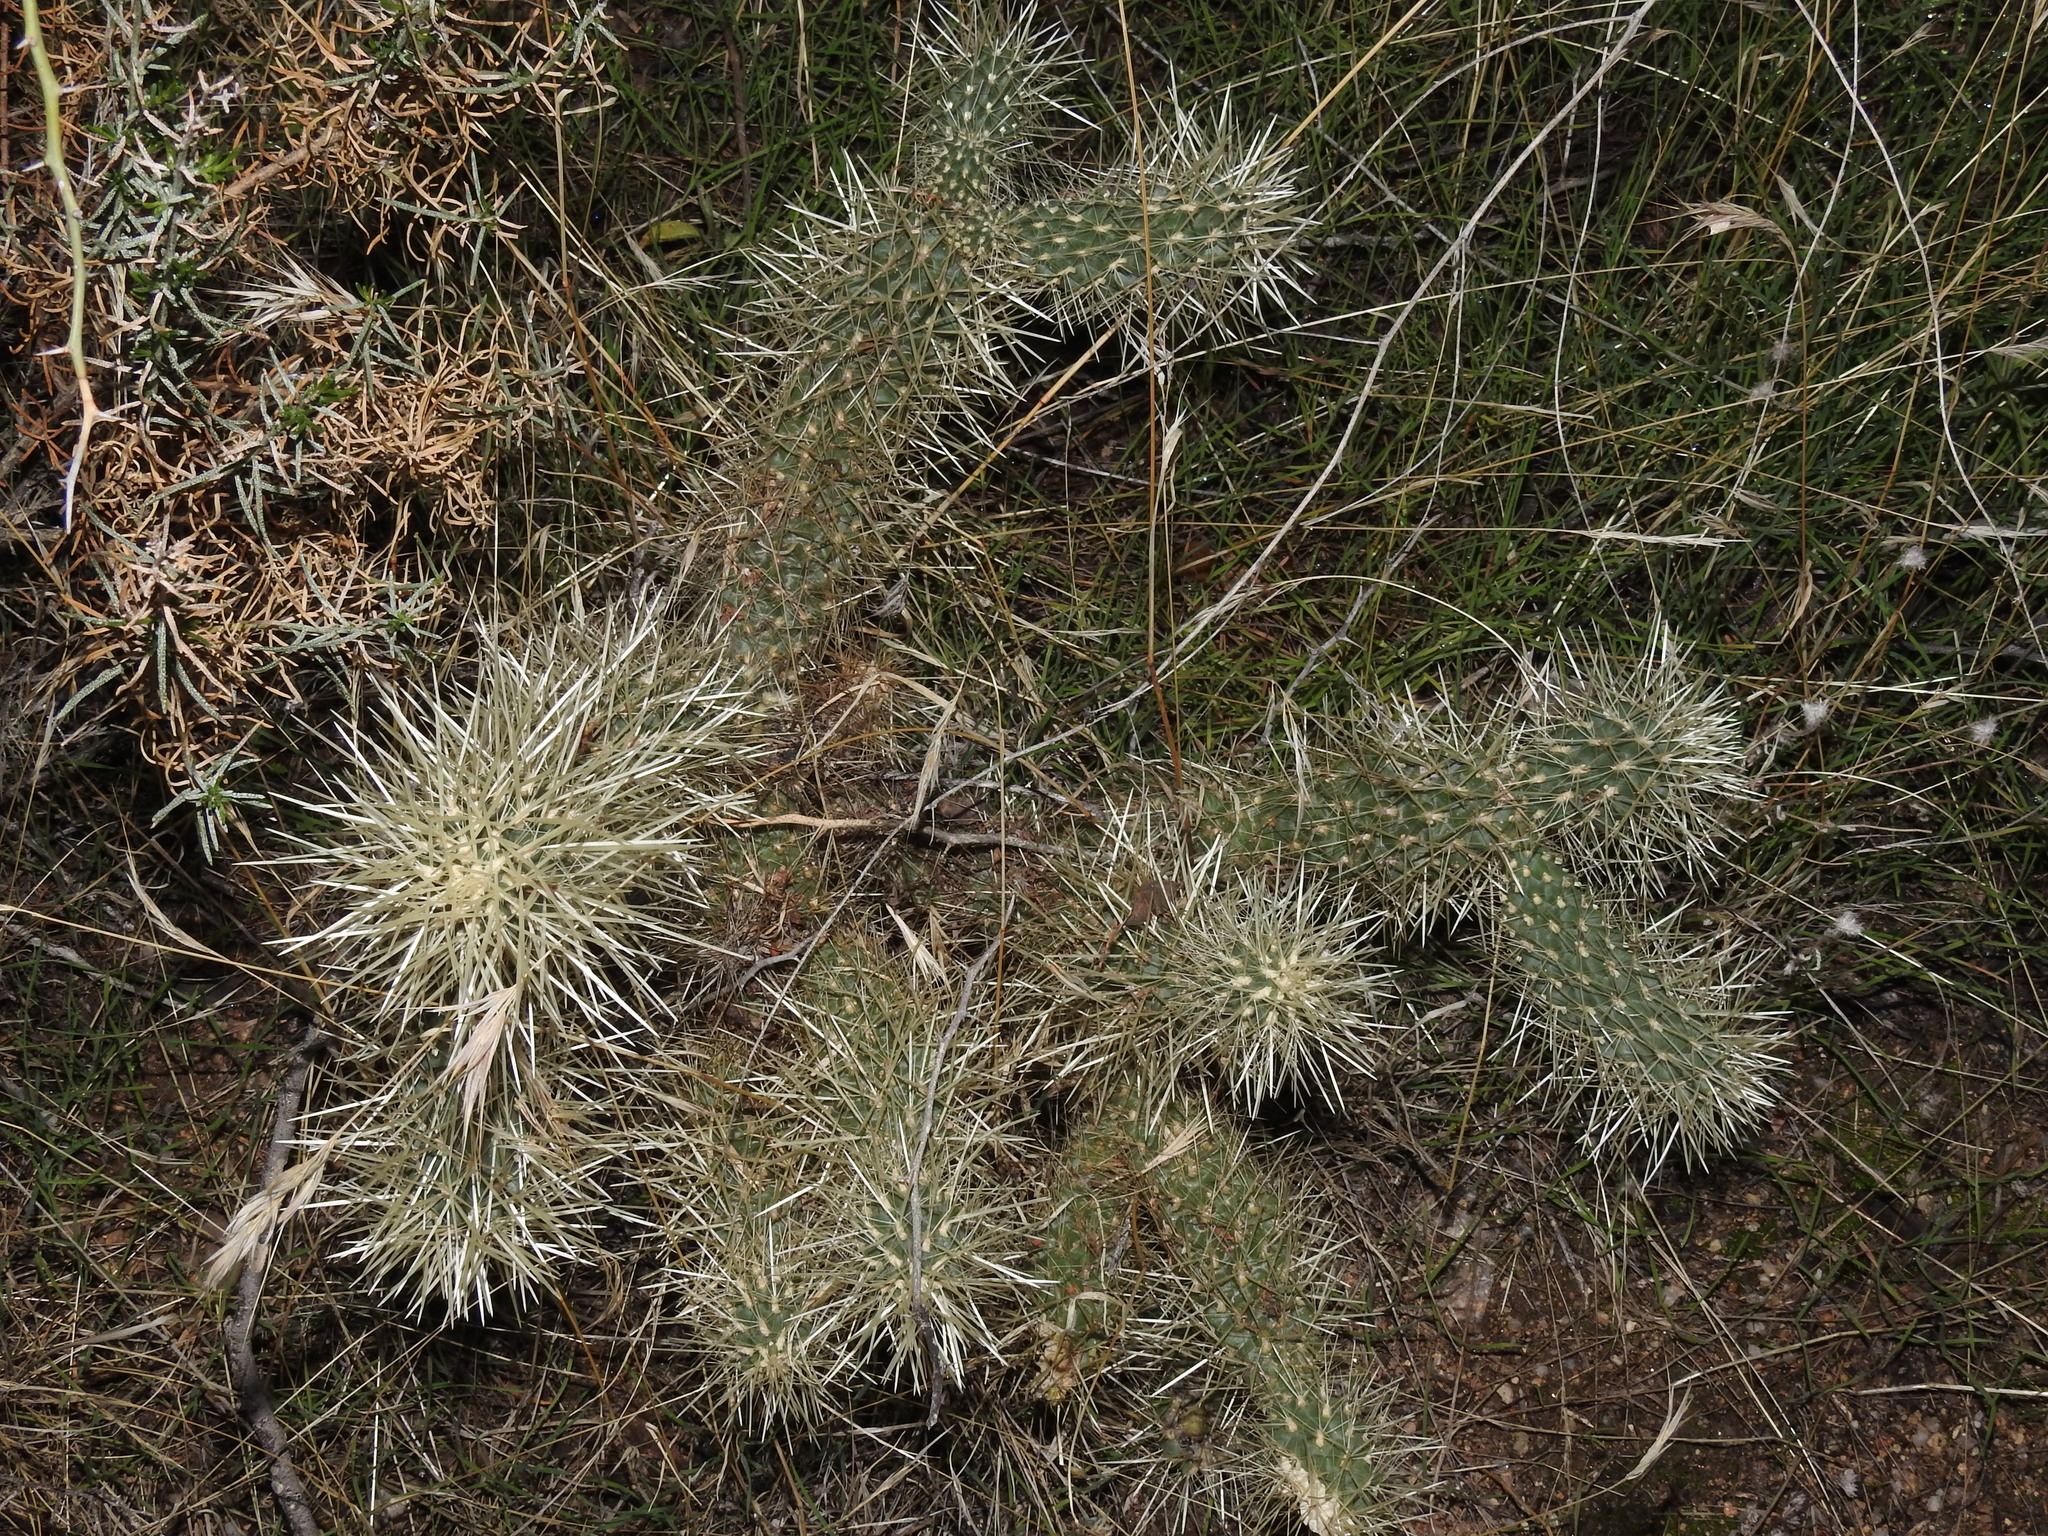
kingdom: Plantae
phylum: Tracheophyta
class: Magnoliopsida
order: Caryophyllales
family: Cactaceae
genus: Cylindropuntia
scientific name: Cylindropuntia fosbergii
